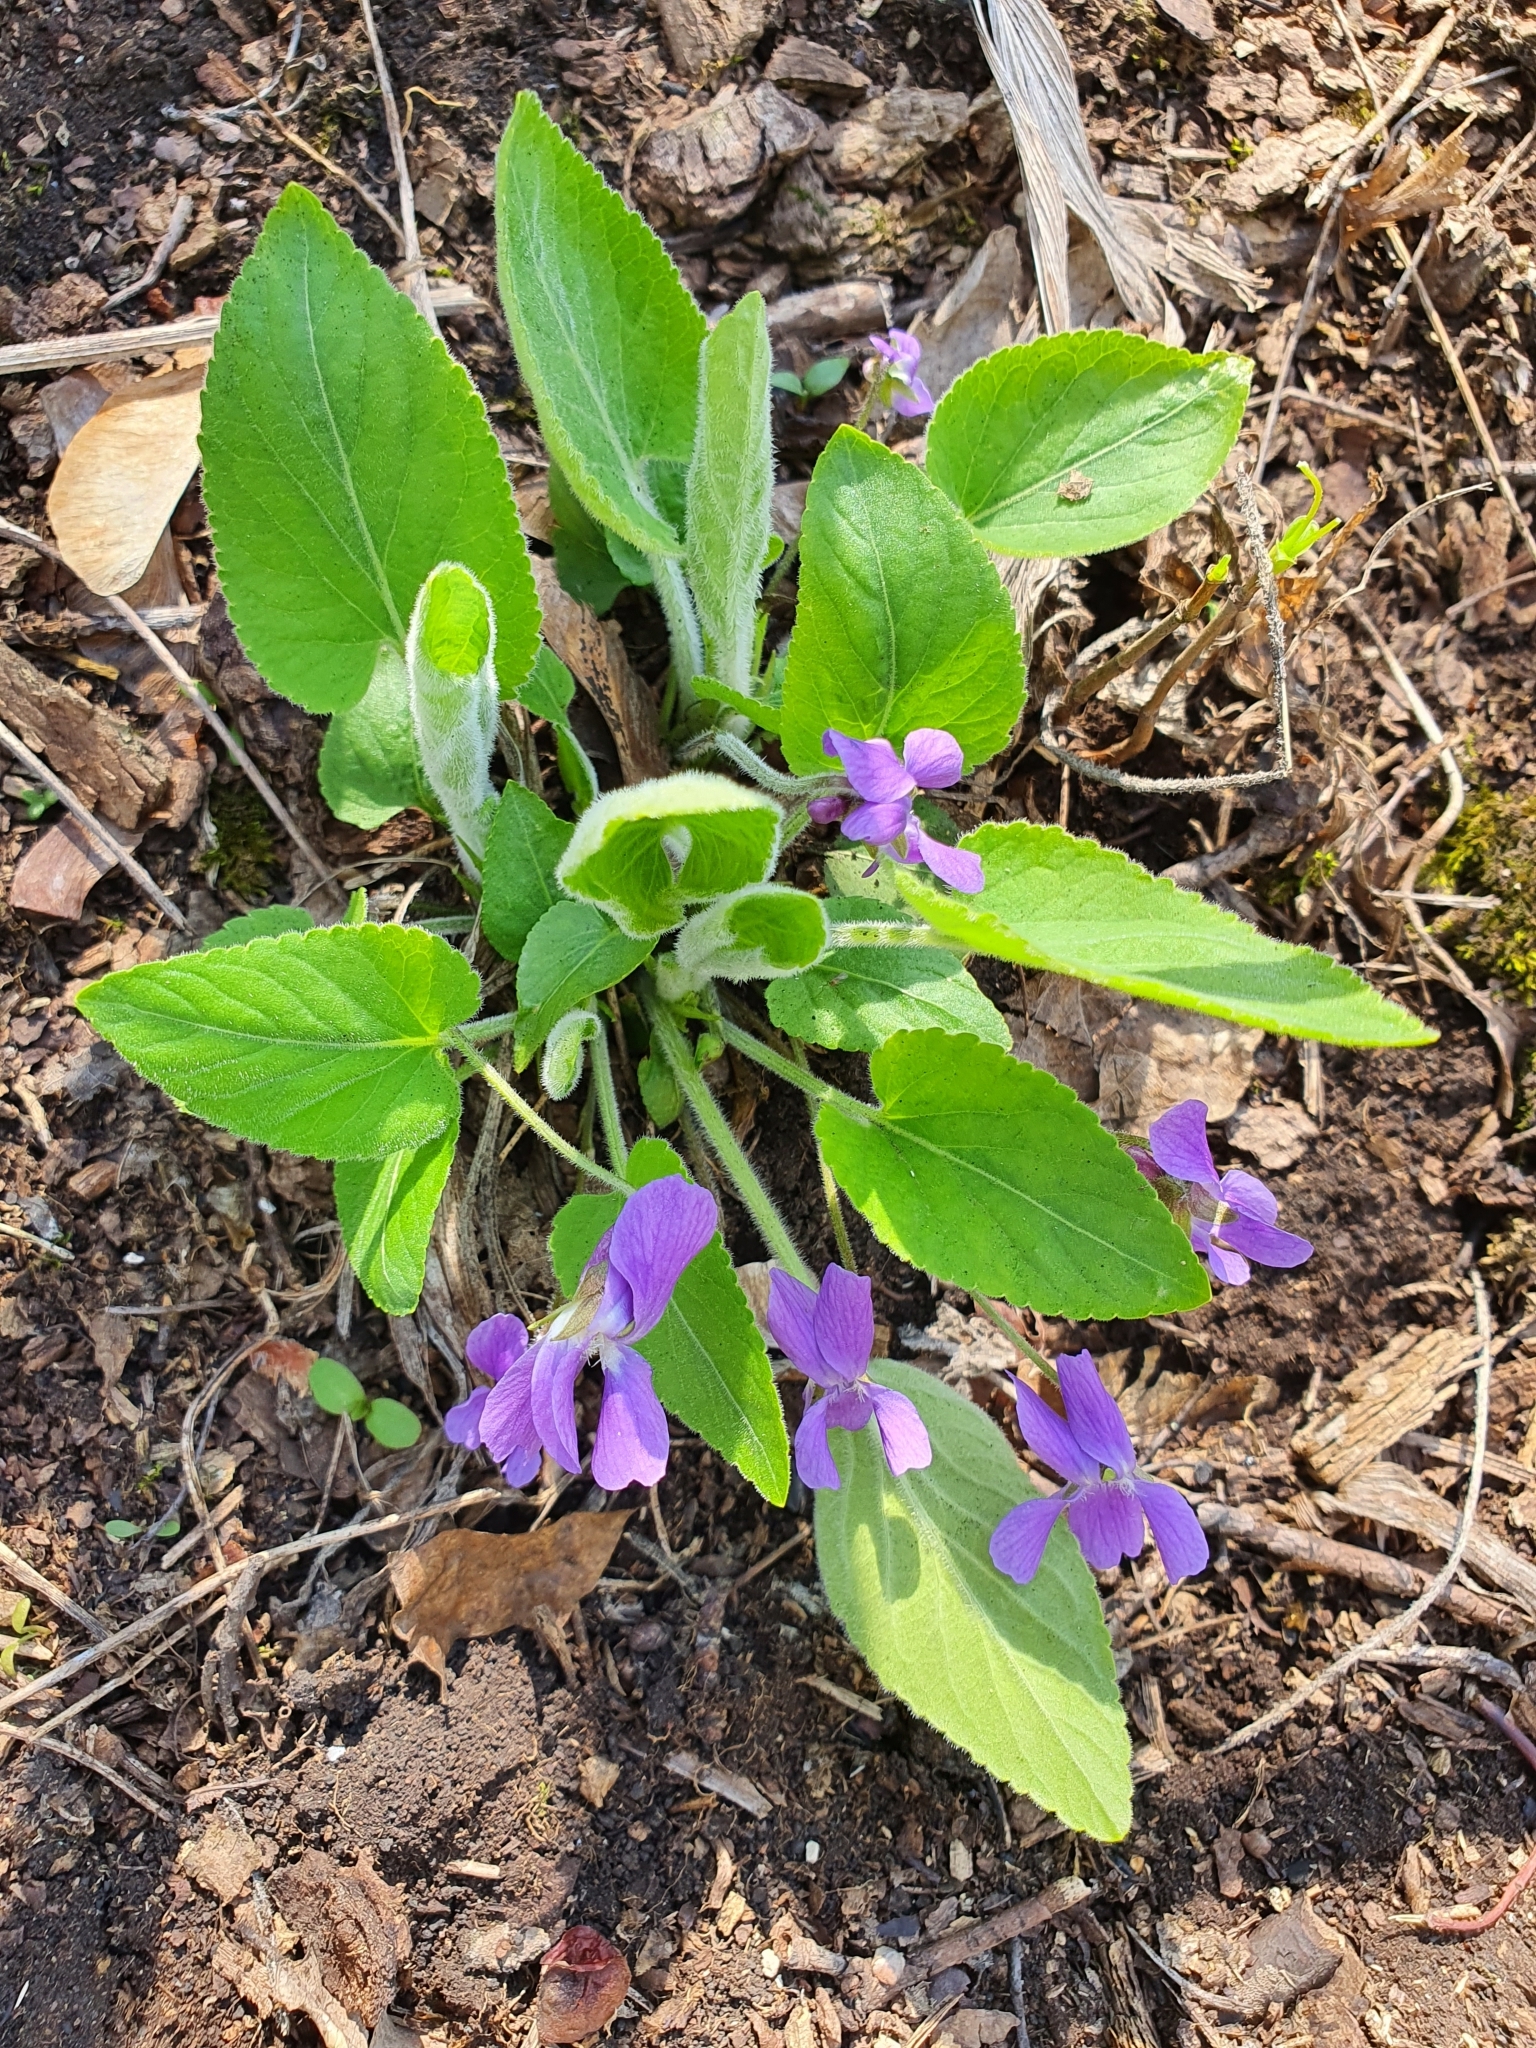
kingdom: Plantae
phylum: Tracheophyta
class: Magnoliopsida
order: Malpighiales
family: Violaceae
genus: Viola
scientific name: Viola hirta
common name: Hairy violet
